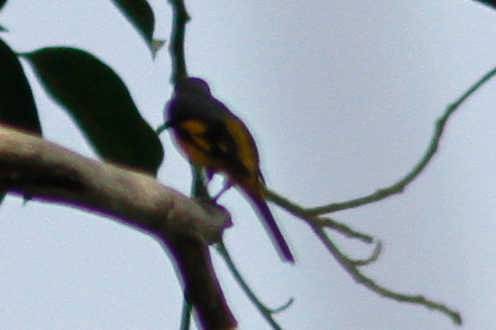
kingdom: Animalia
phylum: Chordata
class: Aves
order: Passeriformes
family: Campephagidae
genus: Pericrocotus
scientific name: Pericrocotus speciosus
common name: Scarlet minivet
